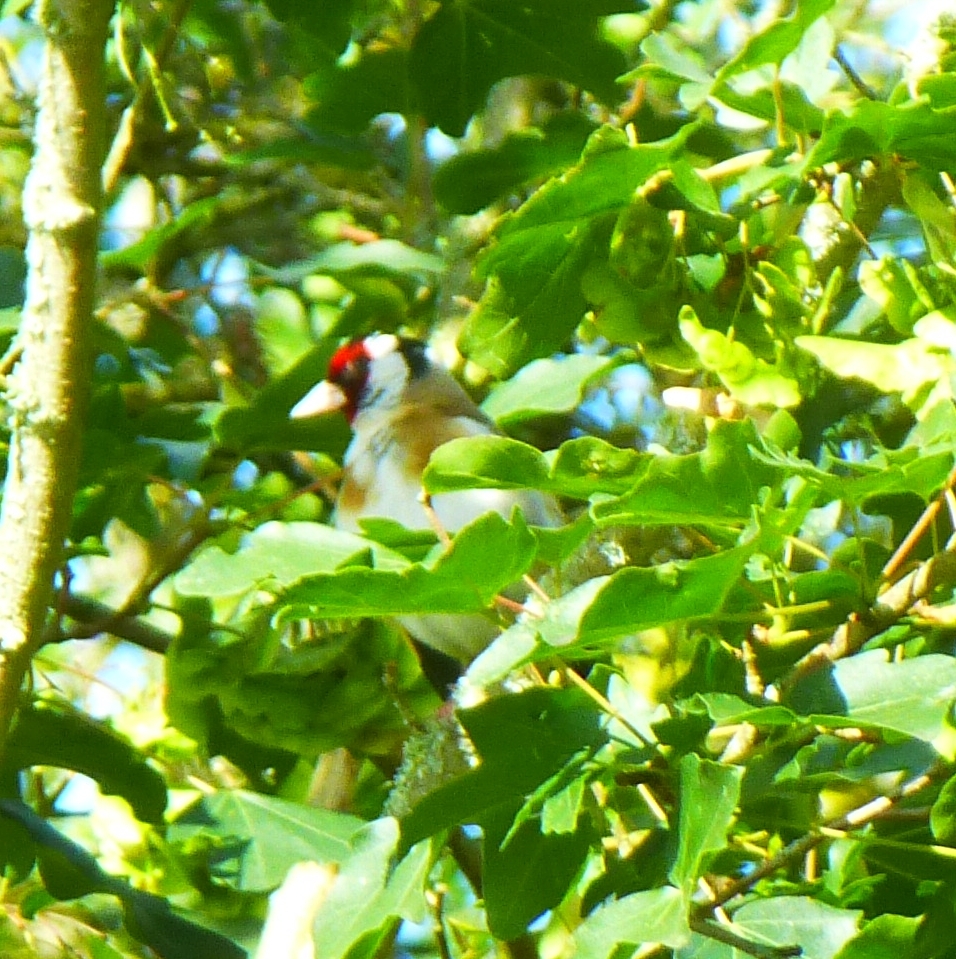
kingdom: Animalia
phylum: Chordata
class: Aves
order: Passeriformes
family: Fringillidae
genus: Carduelis
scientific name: Carduelis carduelis
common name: European goldfinch
